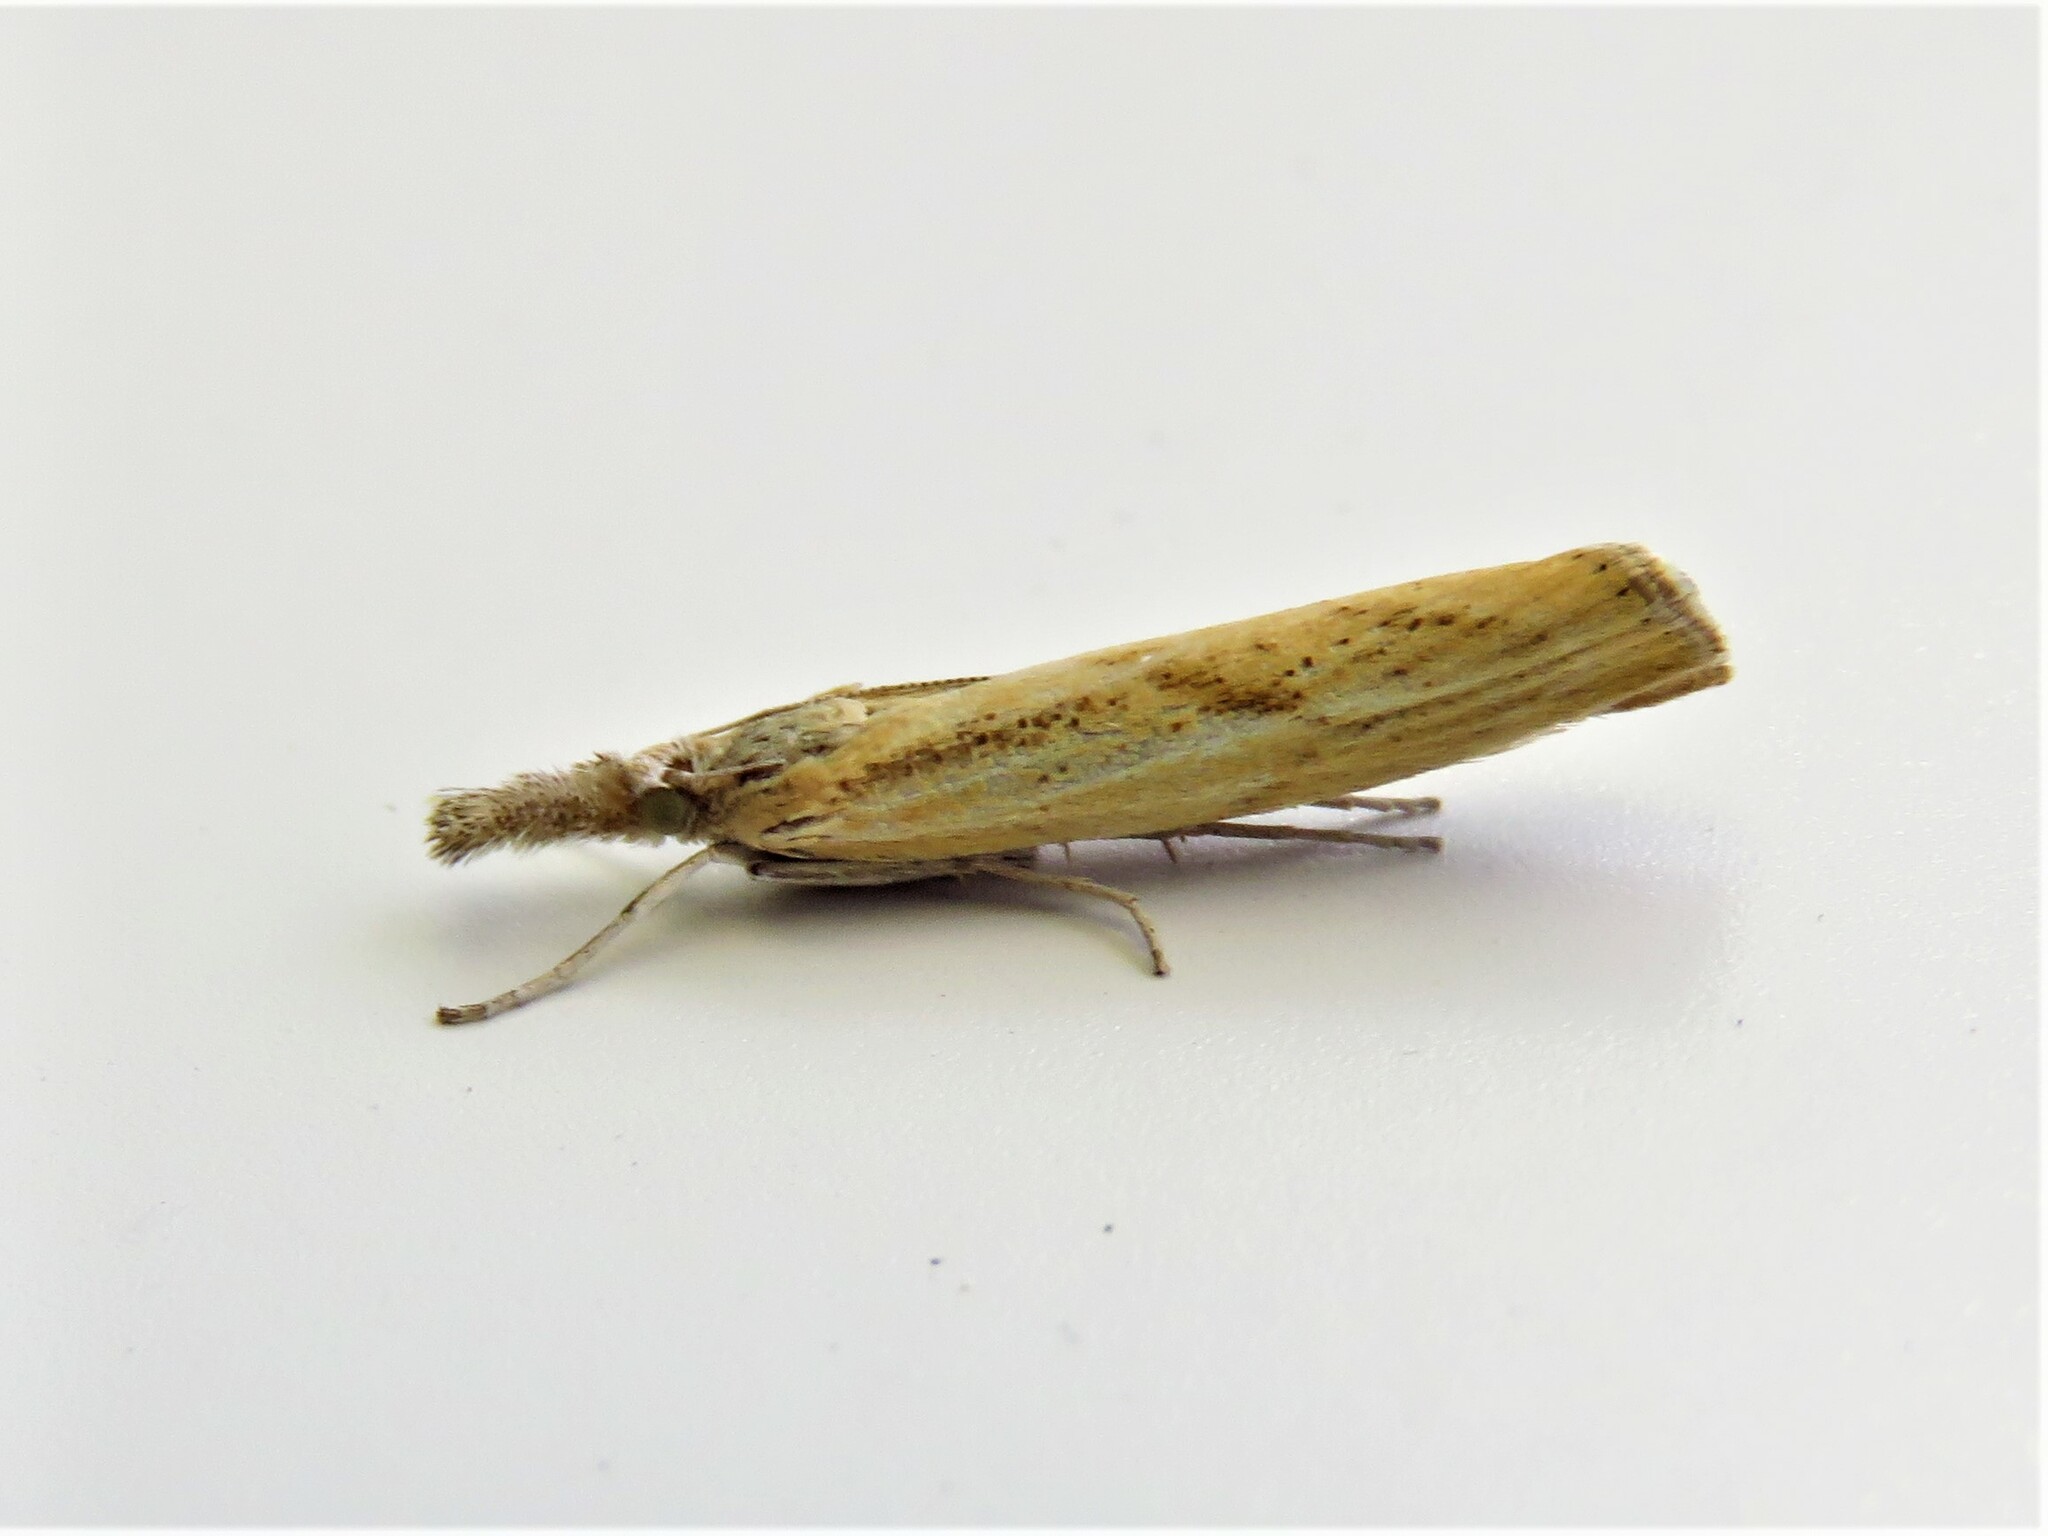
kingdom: Animalia
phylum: Arthropoda
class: Insecta
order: Lepidoptera
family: Crambidae
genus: Agriphila
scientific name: Agriphila inquinatella
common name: Barred grass-veneer
